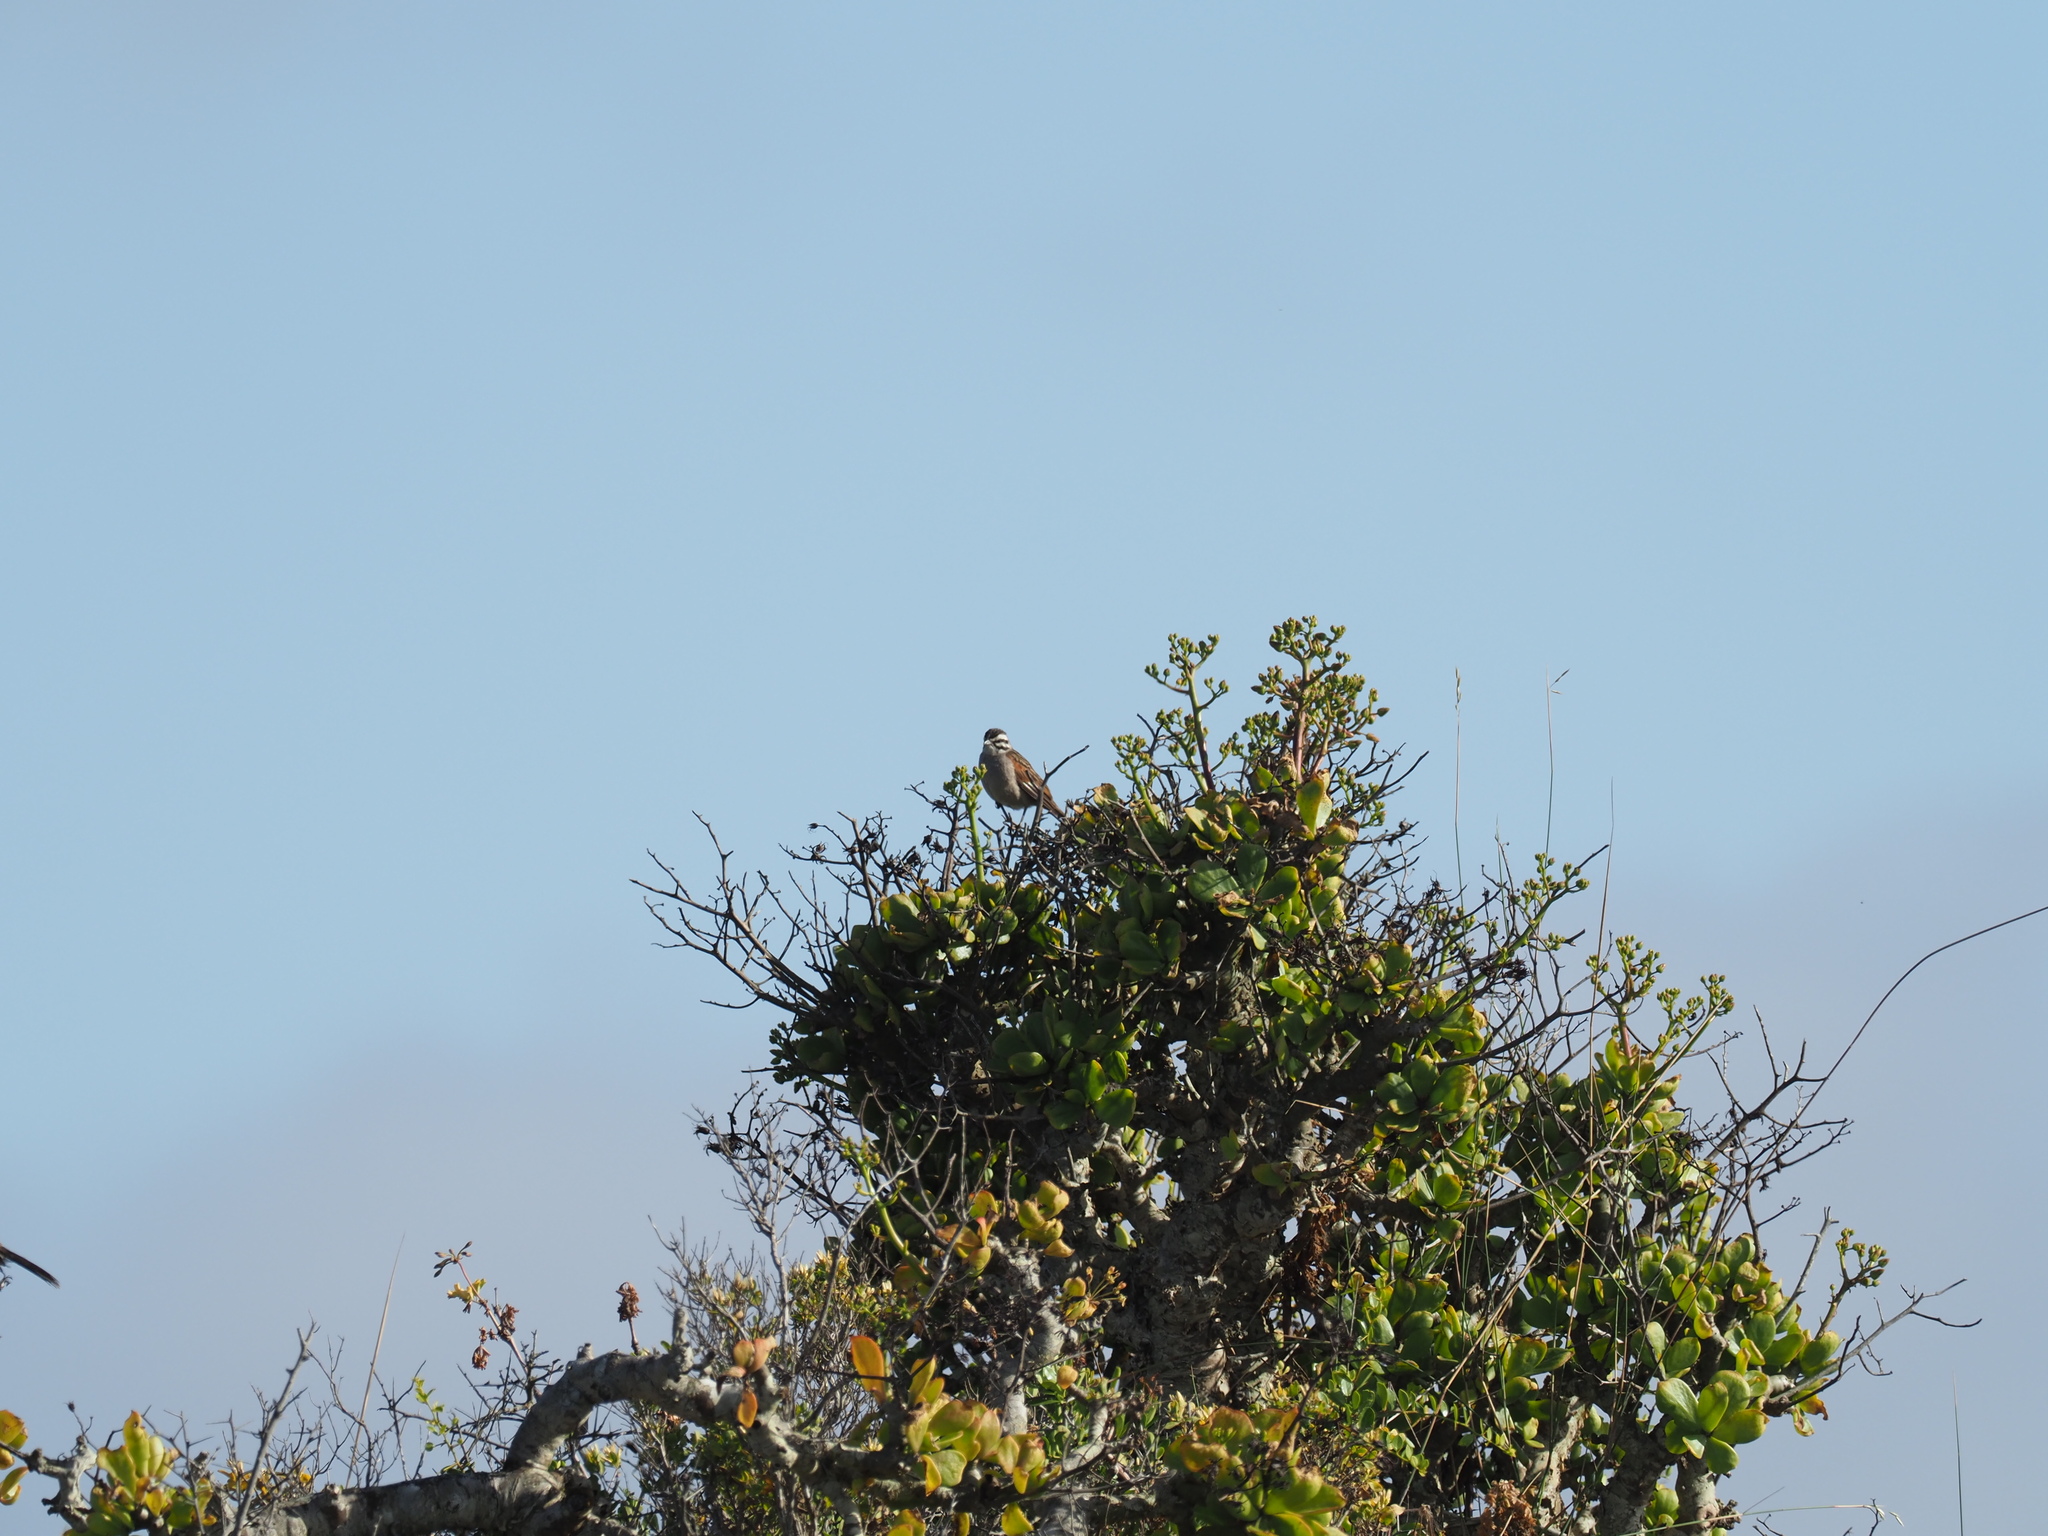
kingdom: Animalia
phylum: Chordata
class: Aves
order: Passeriformes
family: Emberizidae
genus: Emberiza
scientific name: Emberiza capensis
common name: Cape bunting
